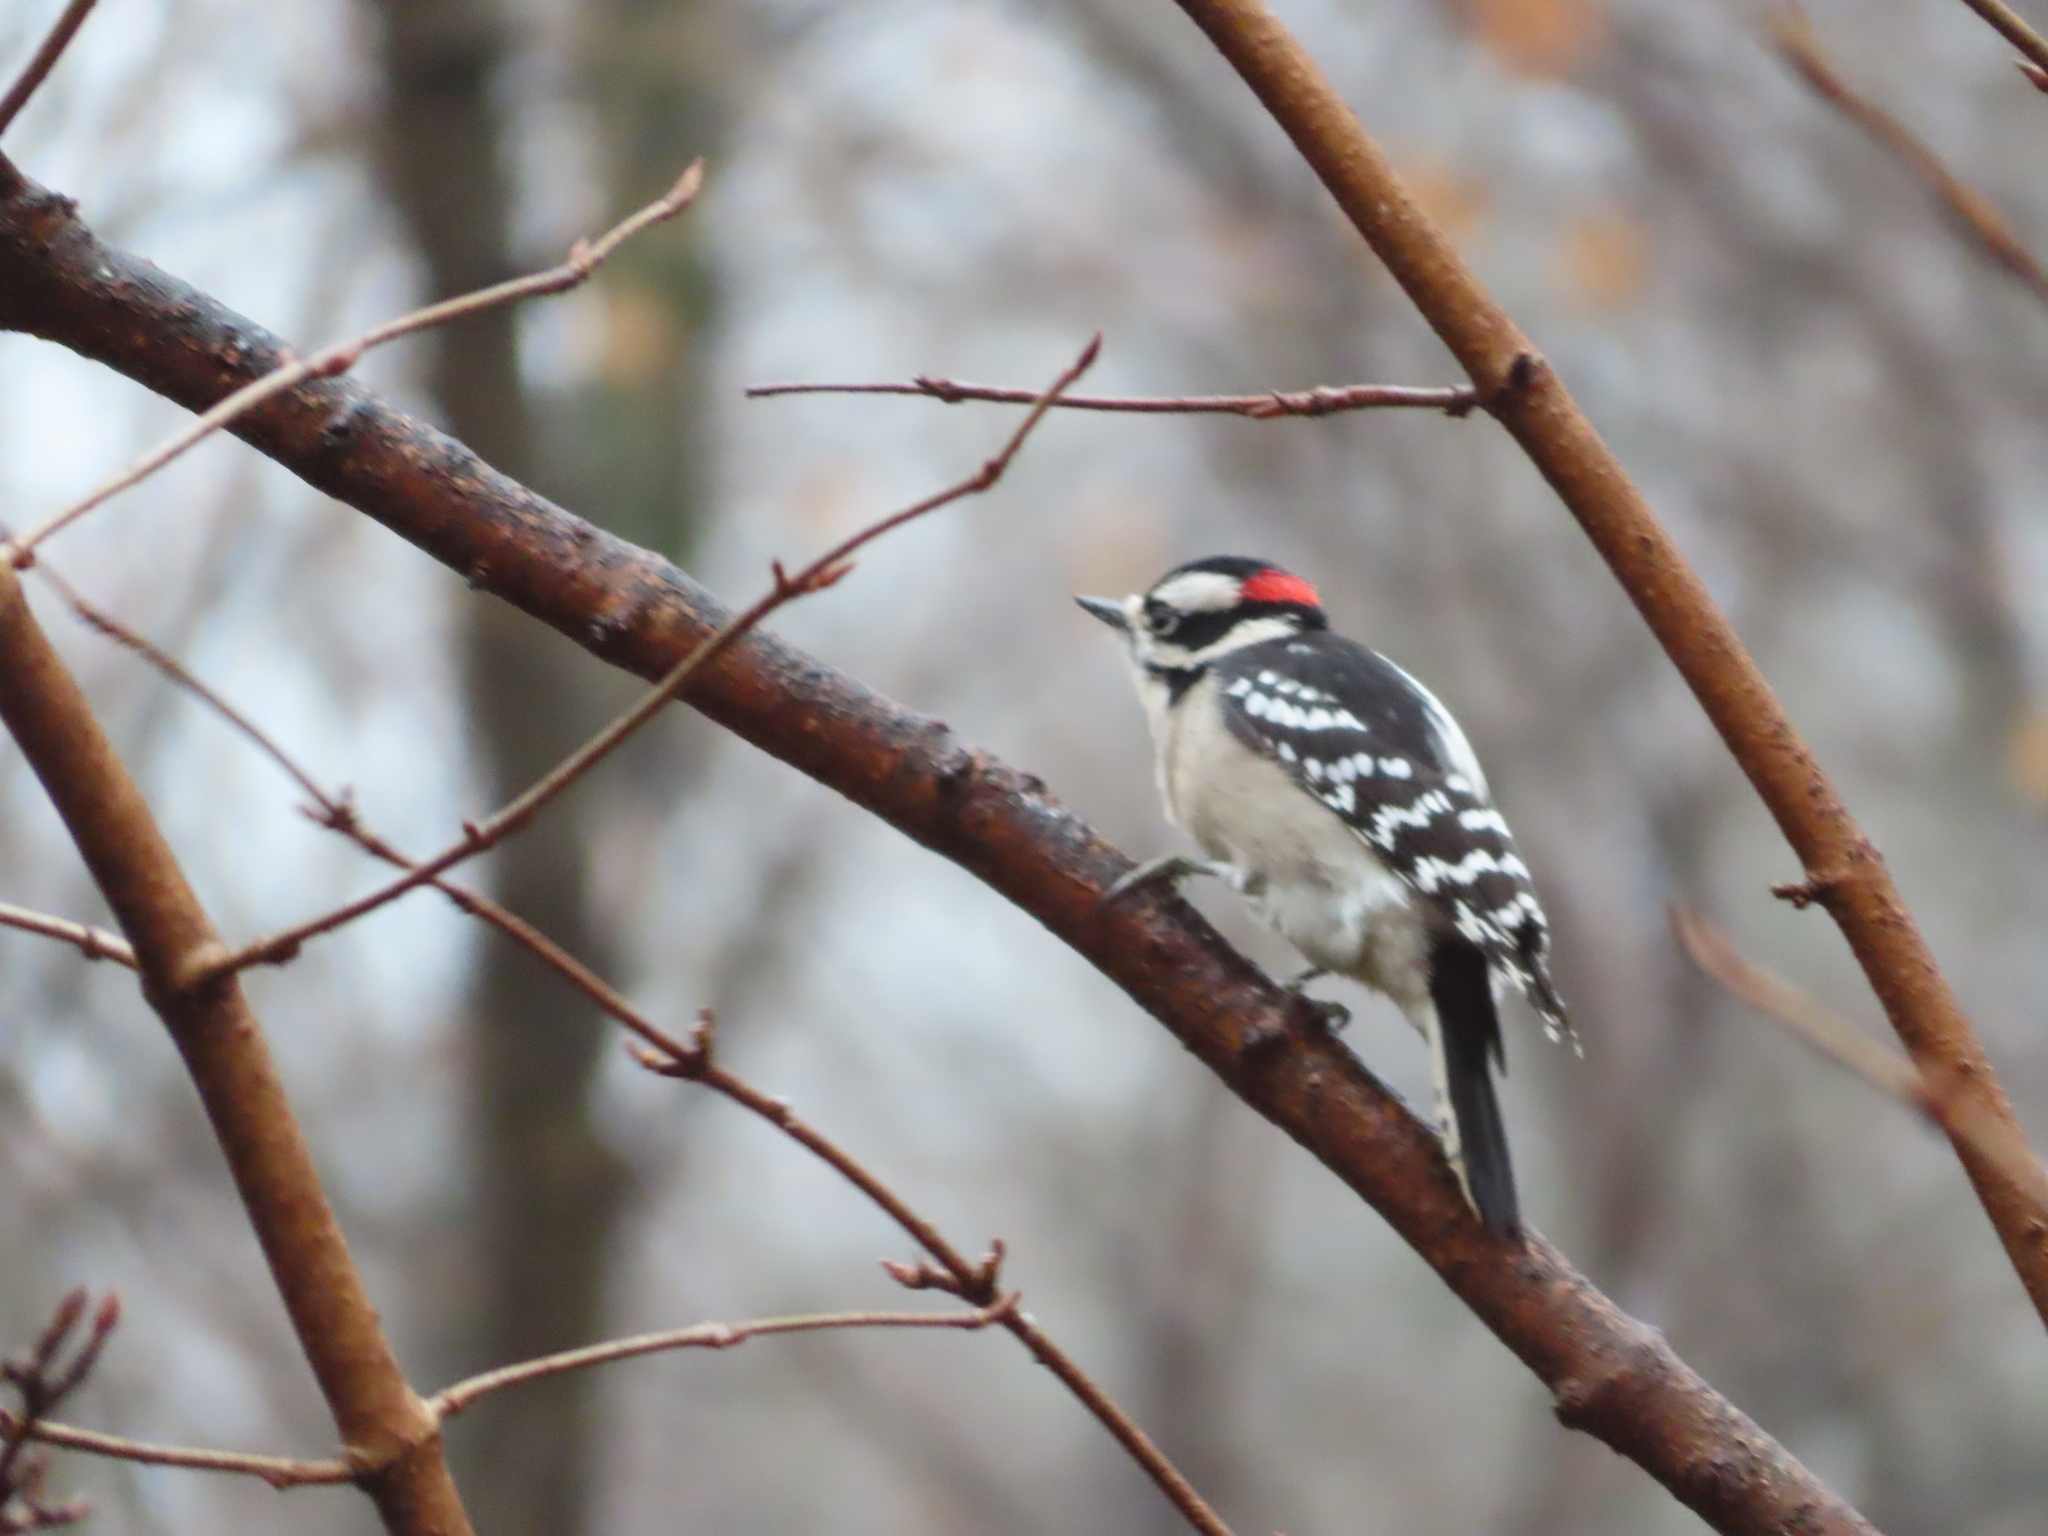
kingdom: Animalia
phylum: Chordata
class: Aves
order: Piciformes
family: Picidae
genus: Dryobates
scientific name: Dryobates pubescens
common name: Downy woodpecker
